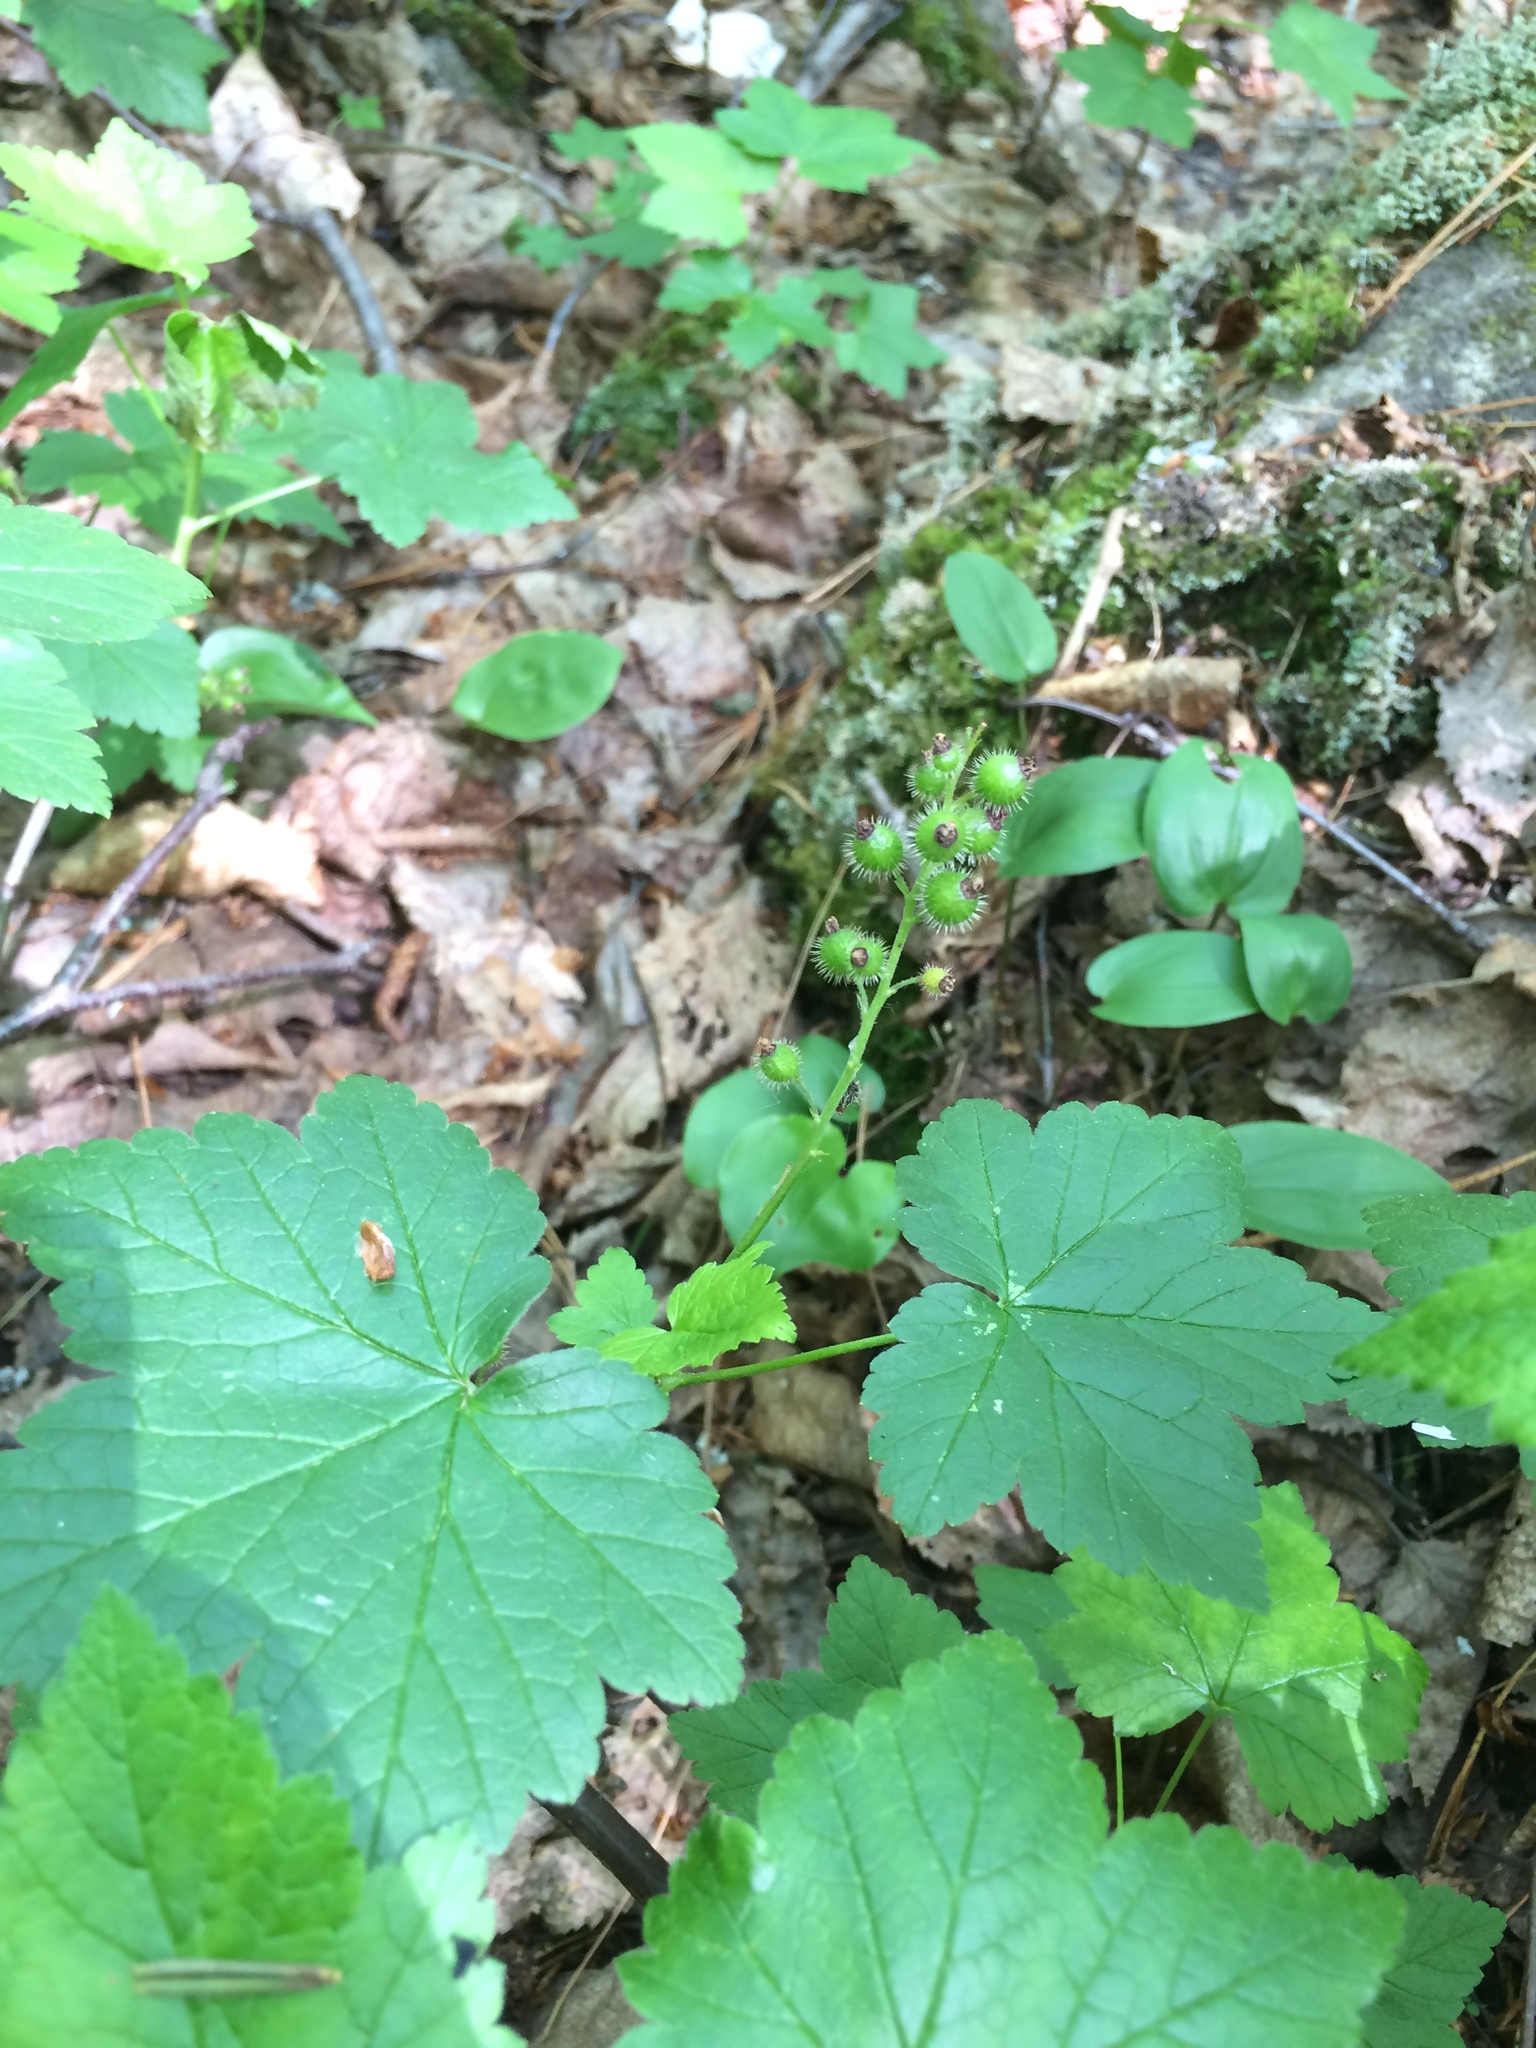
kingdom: Plantae
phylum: Tracheophyta
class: Magnoliopsida
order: Saxifragales
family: Grossulariaceae
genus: Ribes
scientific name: Ribes glandulosum
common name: Skunk currant
